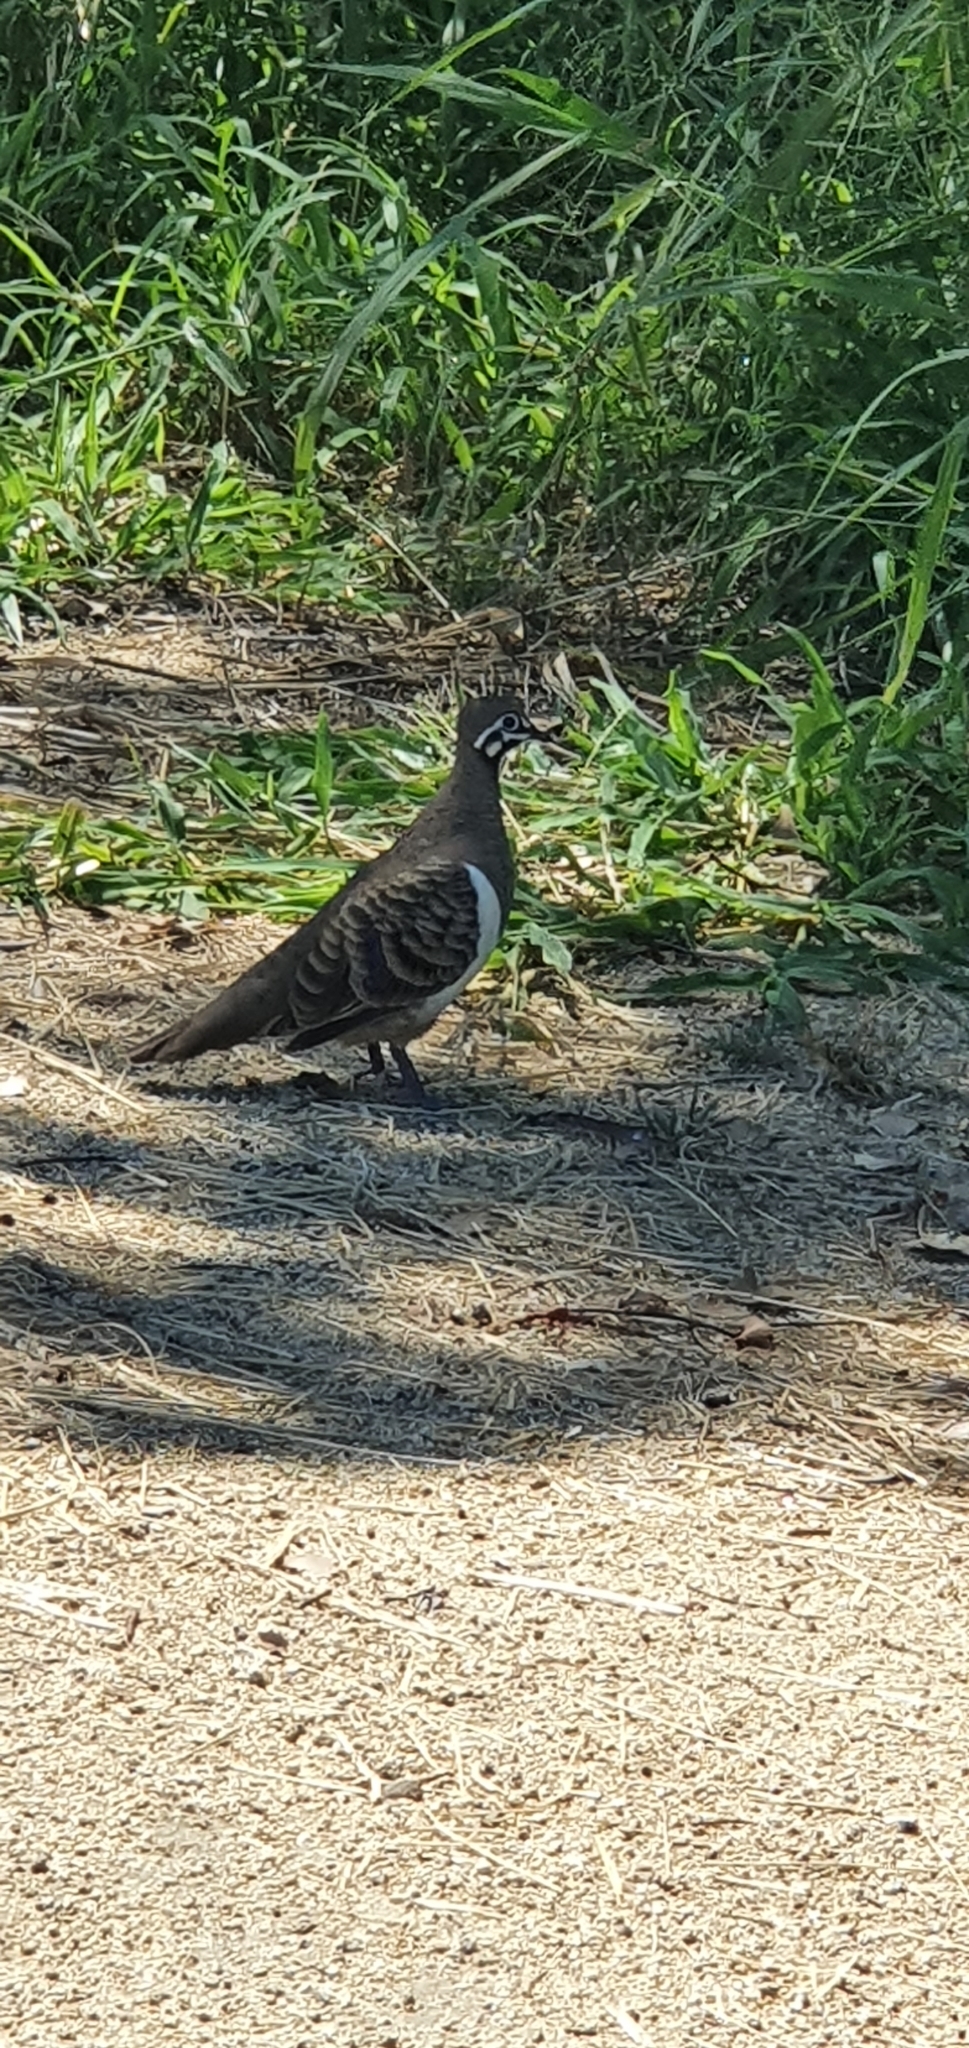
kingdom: Animalia
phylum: Chordata
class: Aves
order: Columbiformes
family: Columbidae
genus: Geophaps
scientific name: Geophaps scripta
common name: Squatter pigeon
